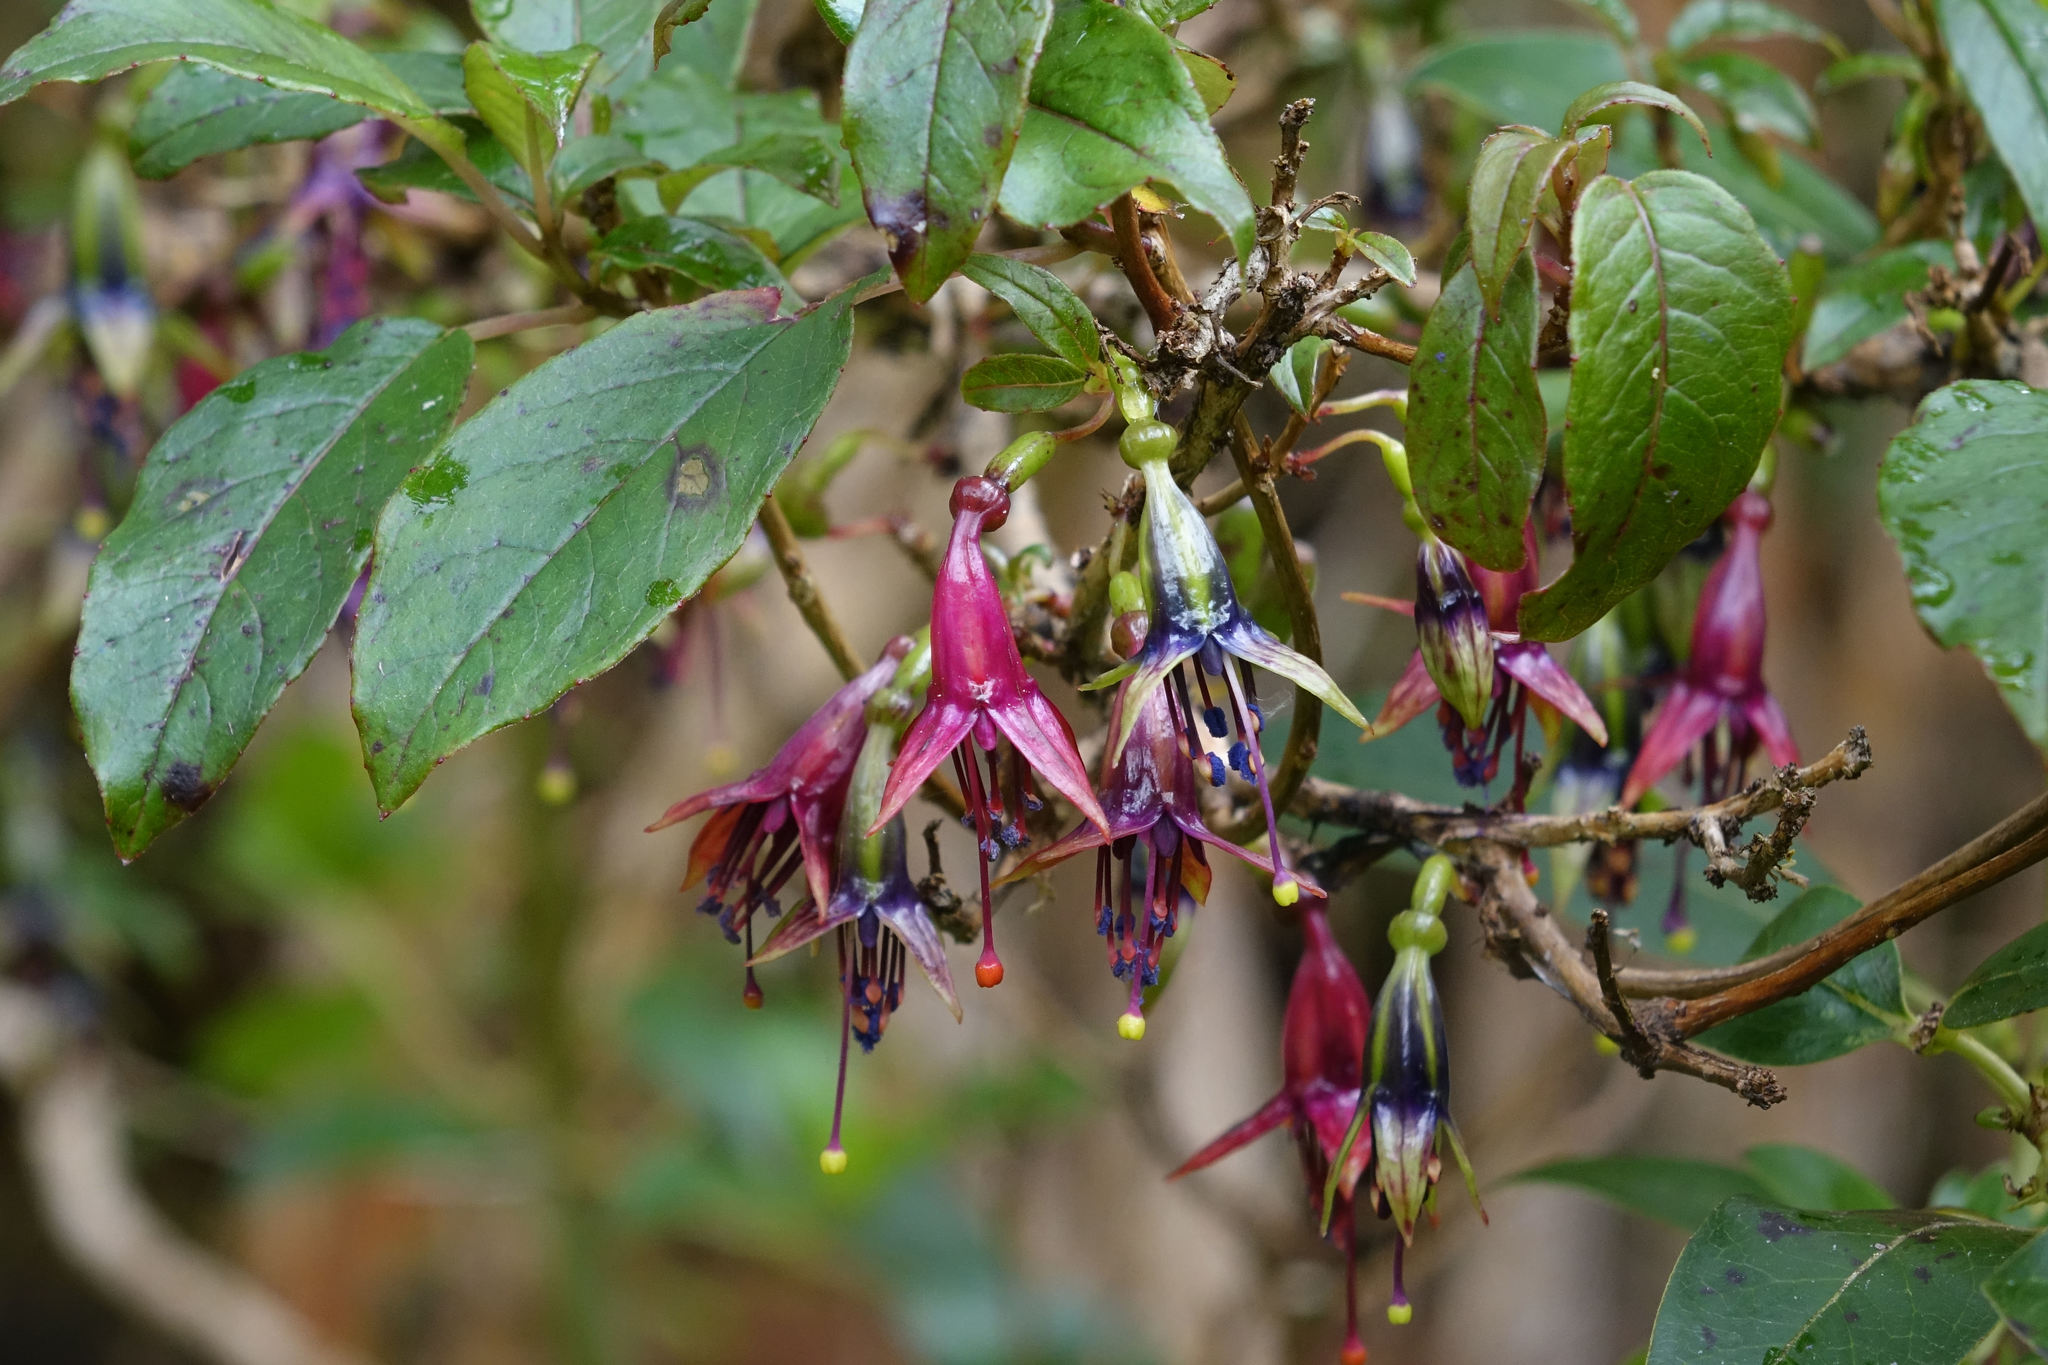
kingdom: Plantae
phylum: Tracheophyta
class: Magnoliopsida
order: Myrtales
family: Onagraceae
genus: Fuchsia
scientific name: Fuchsia excorticata
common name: Tree fuchsia
